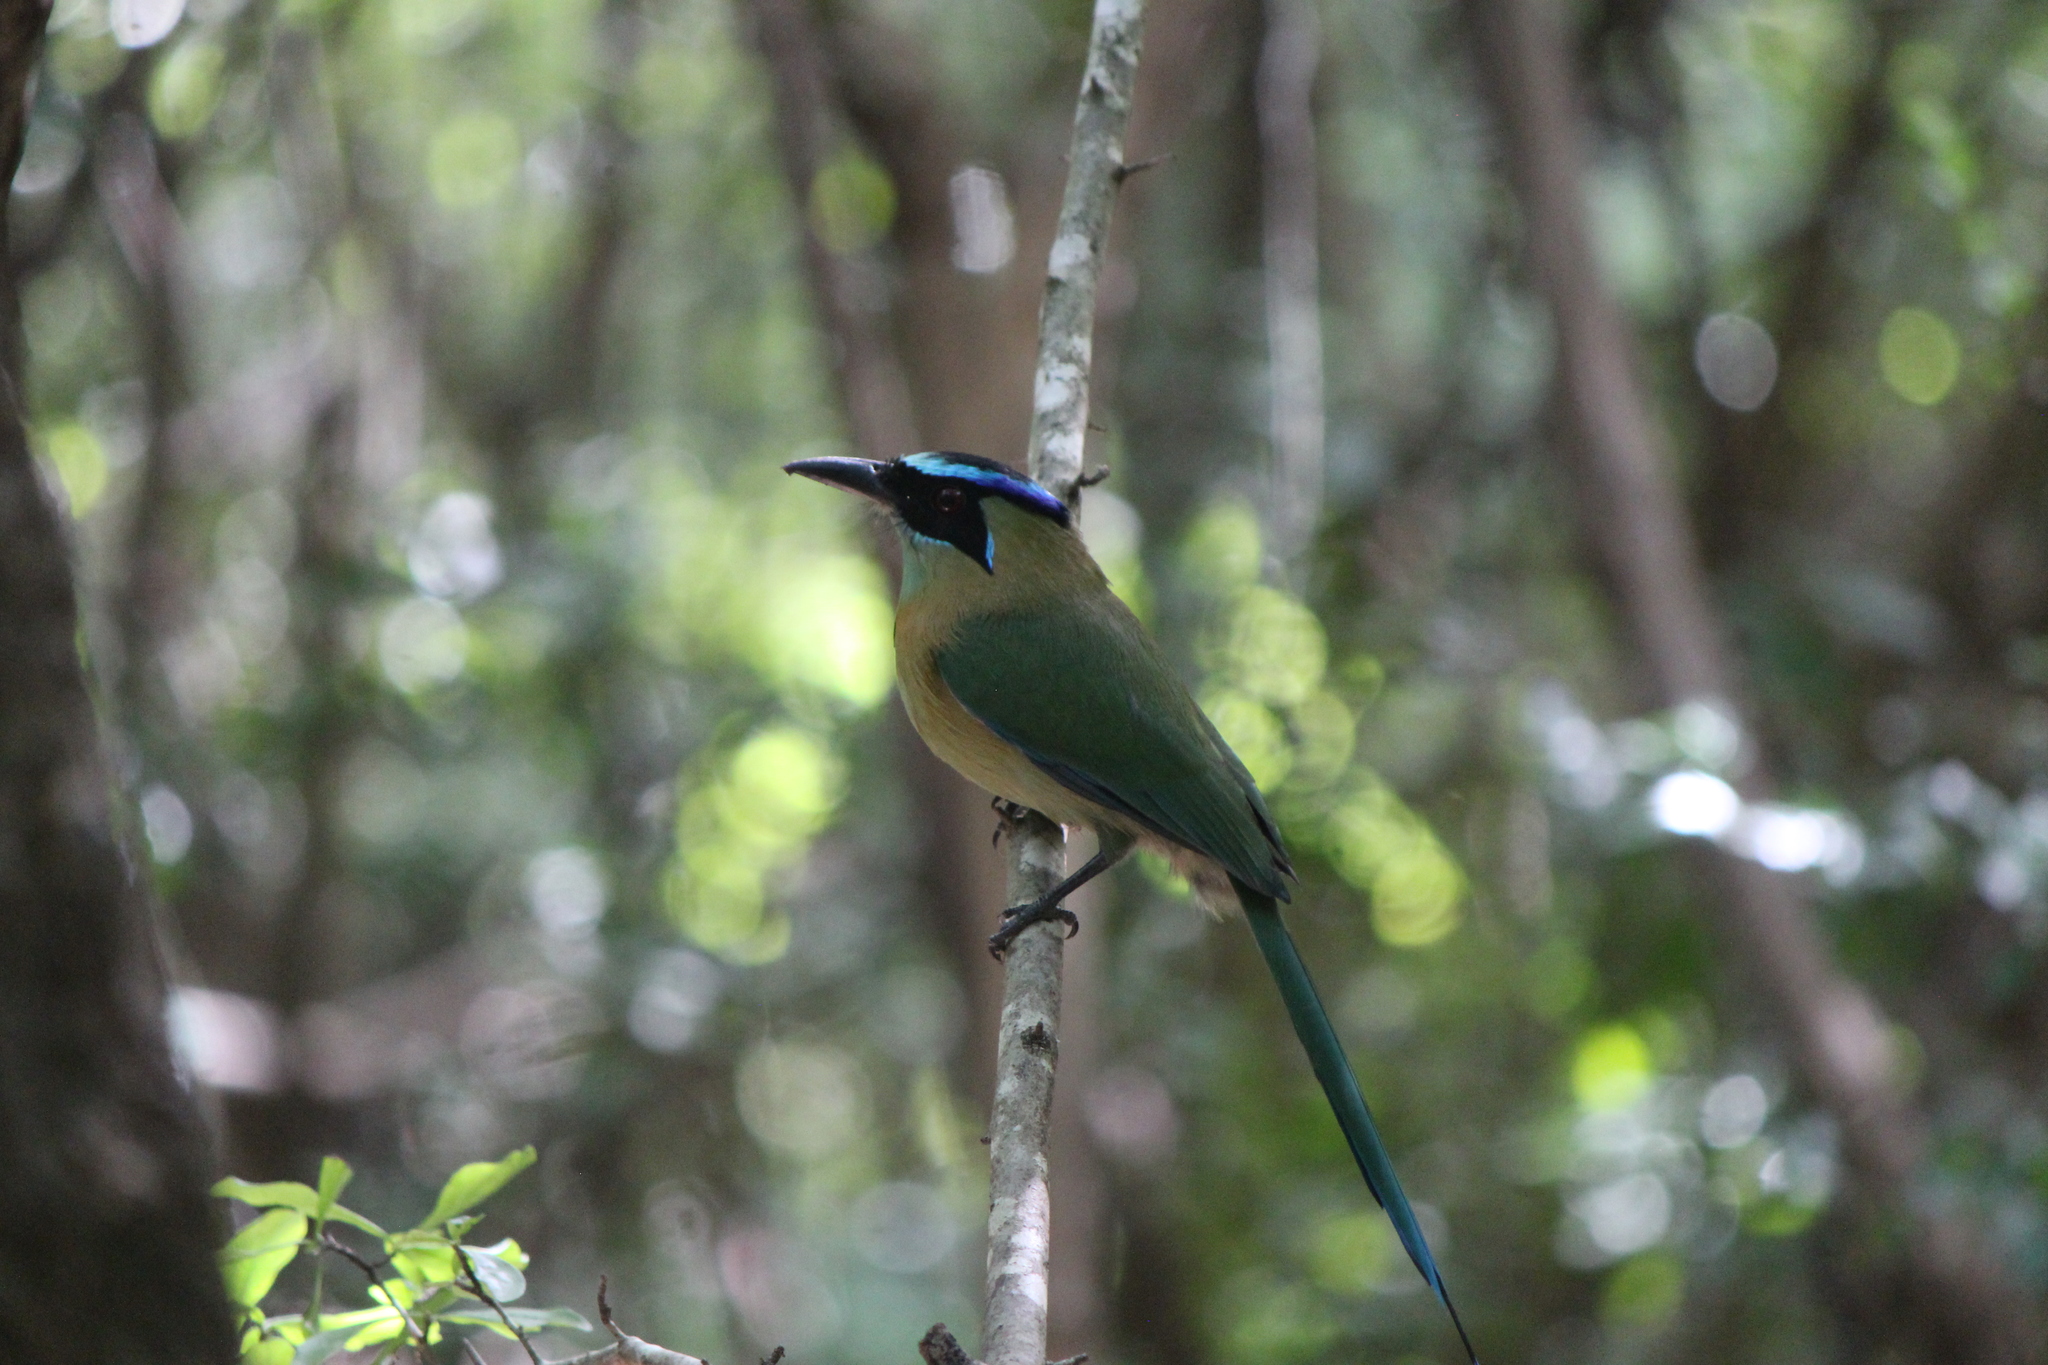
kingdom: Animalia
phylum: Chordata
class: Aves
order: Coraciiformes
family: Momotidae
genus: Momotus
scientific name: Momotus lessonii
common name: Lesson's motmot
